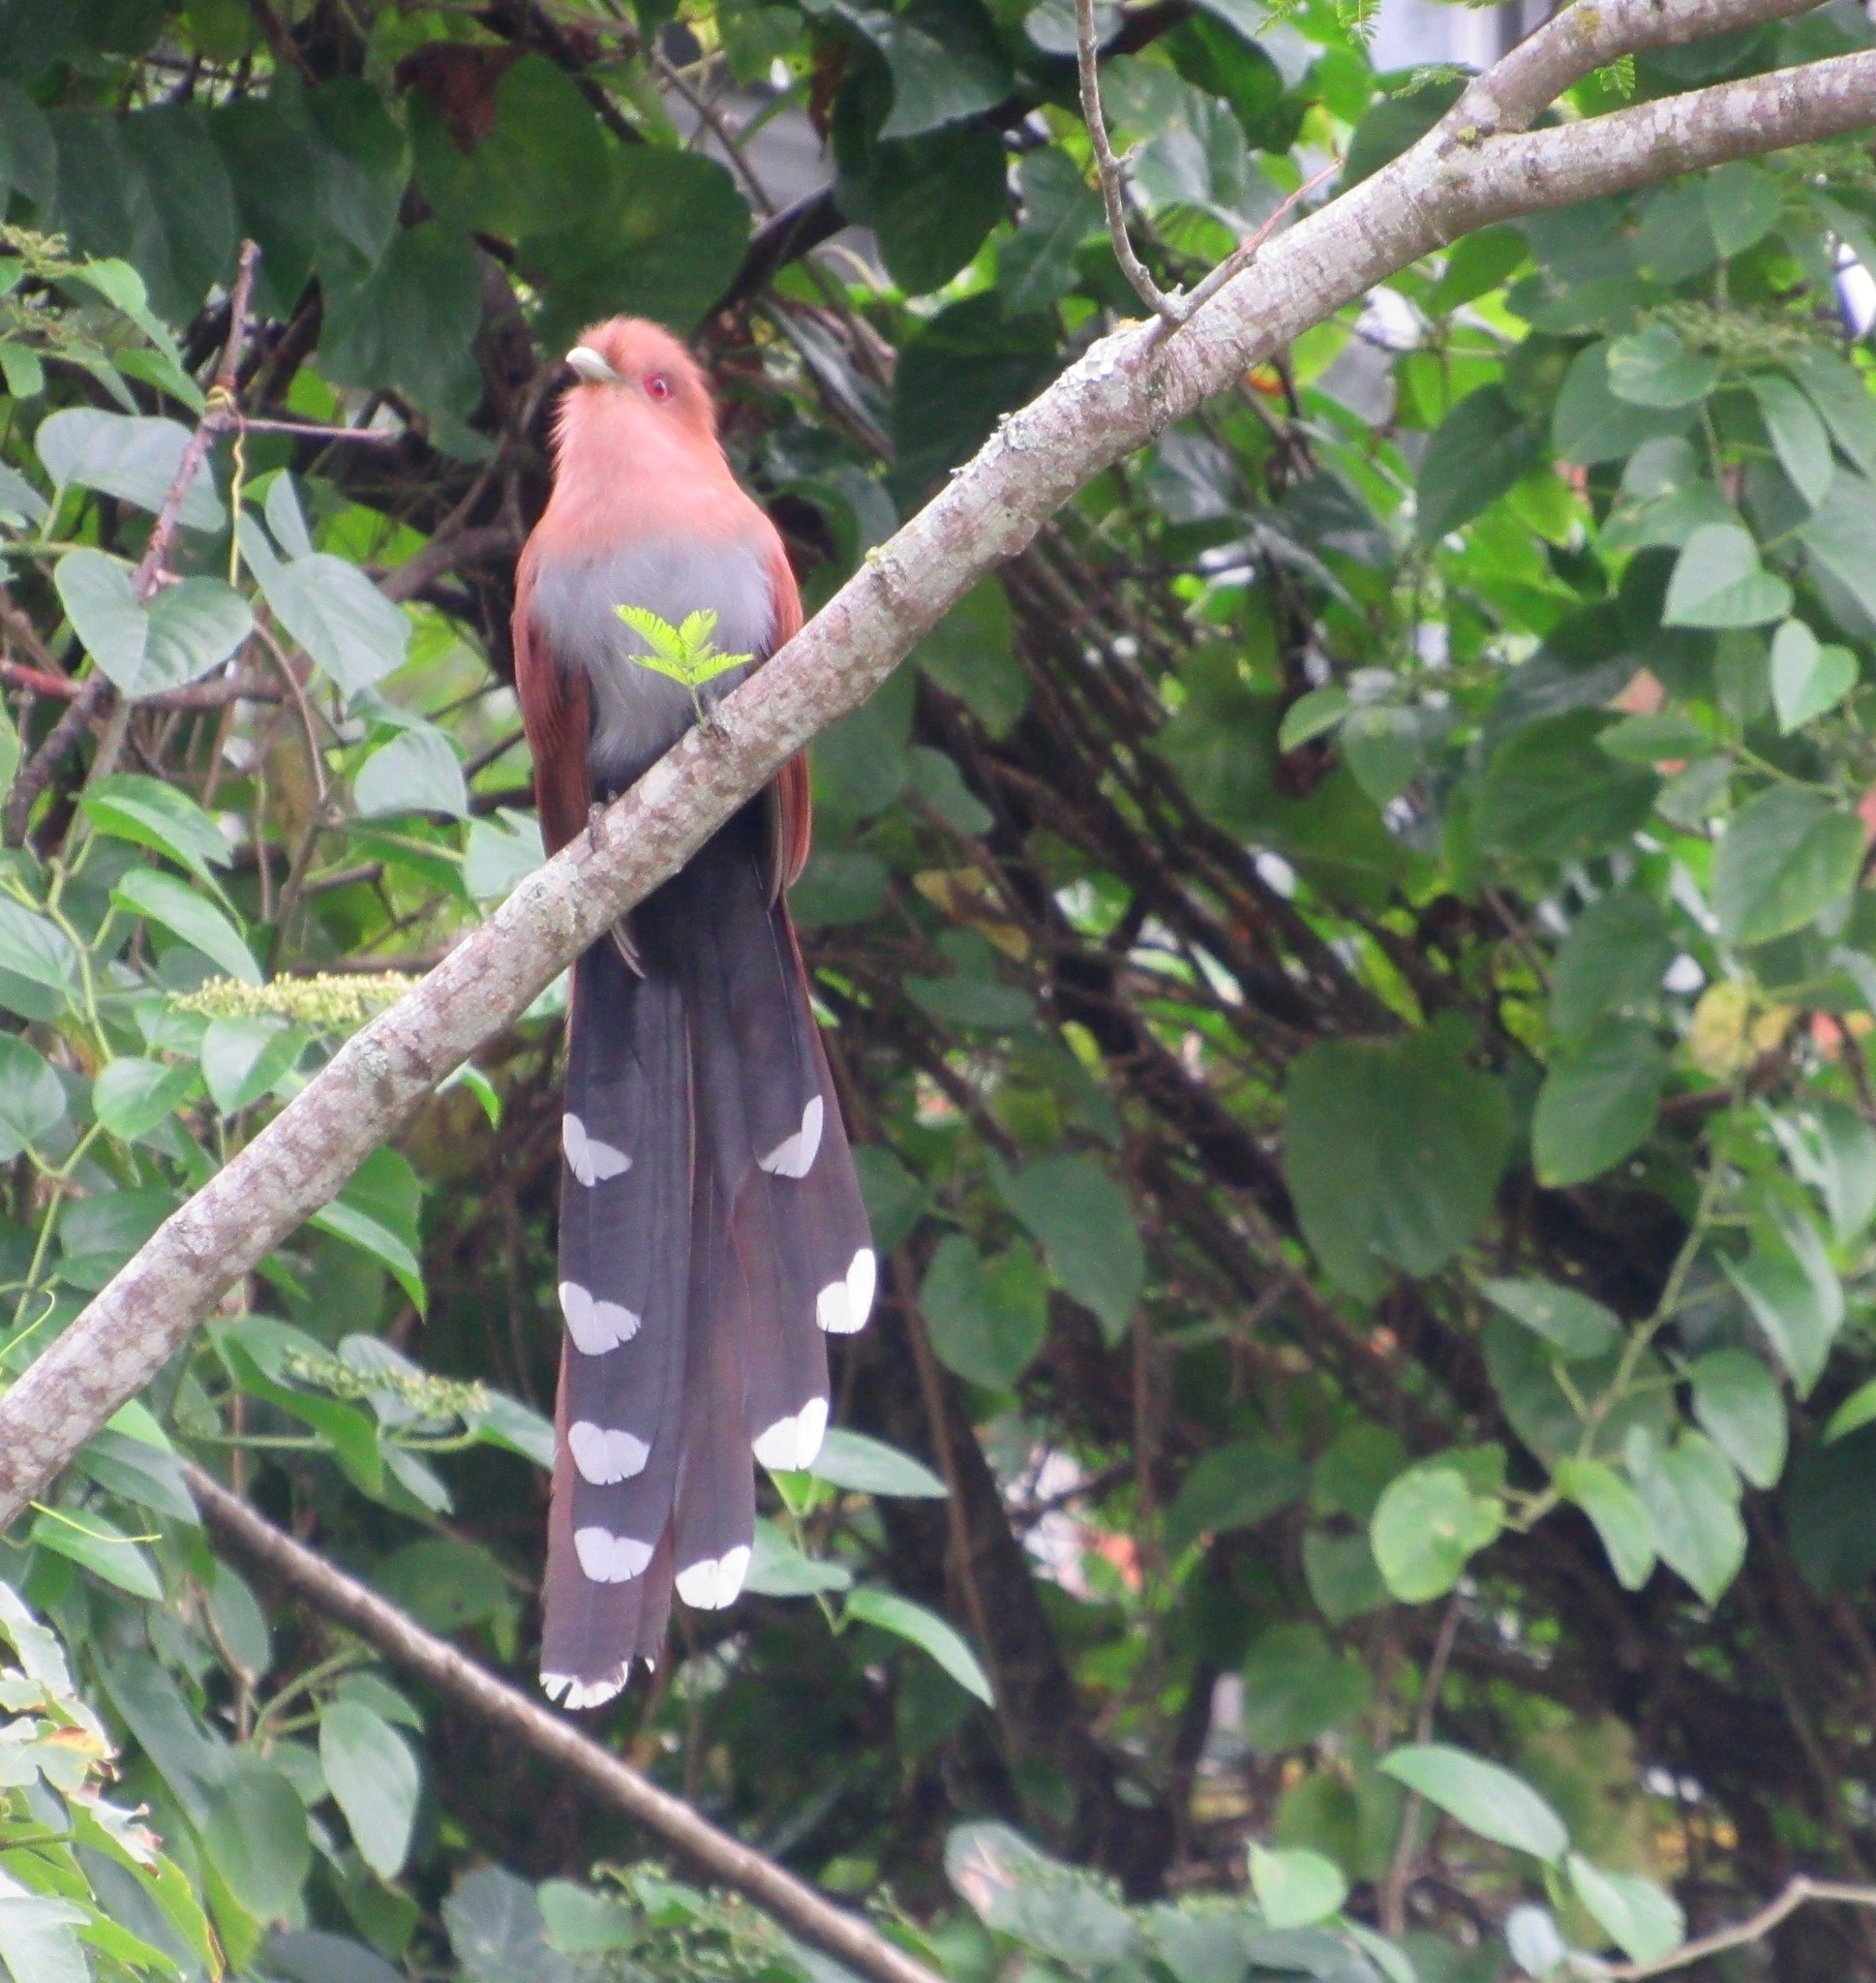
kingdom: Animalia
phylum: Chordata
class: Aves
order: Cuculiformes
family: Cuculidae
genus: Piaya
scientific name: Piaya cayana
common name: Squirrel cuckoo
